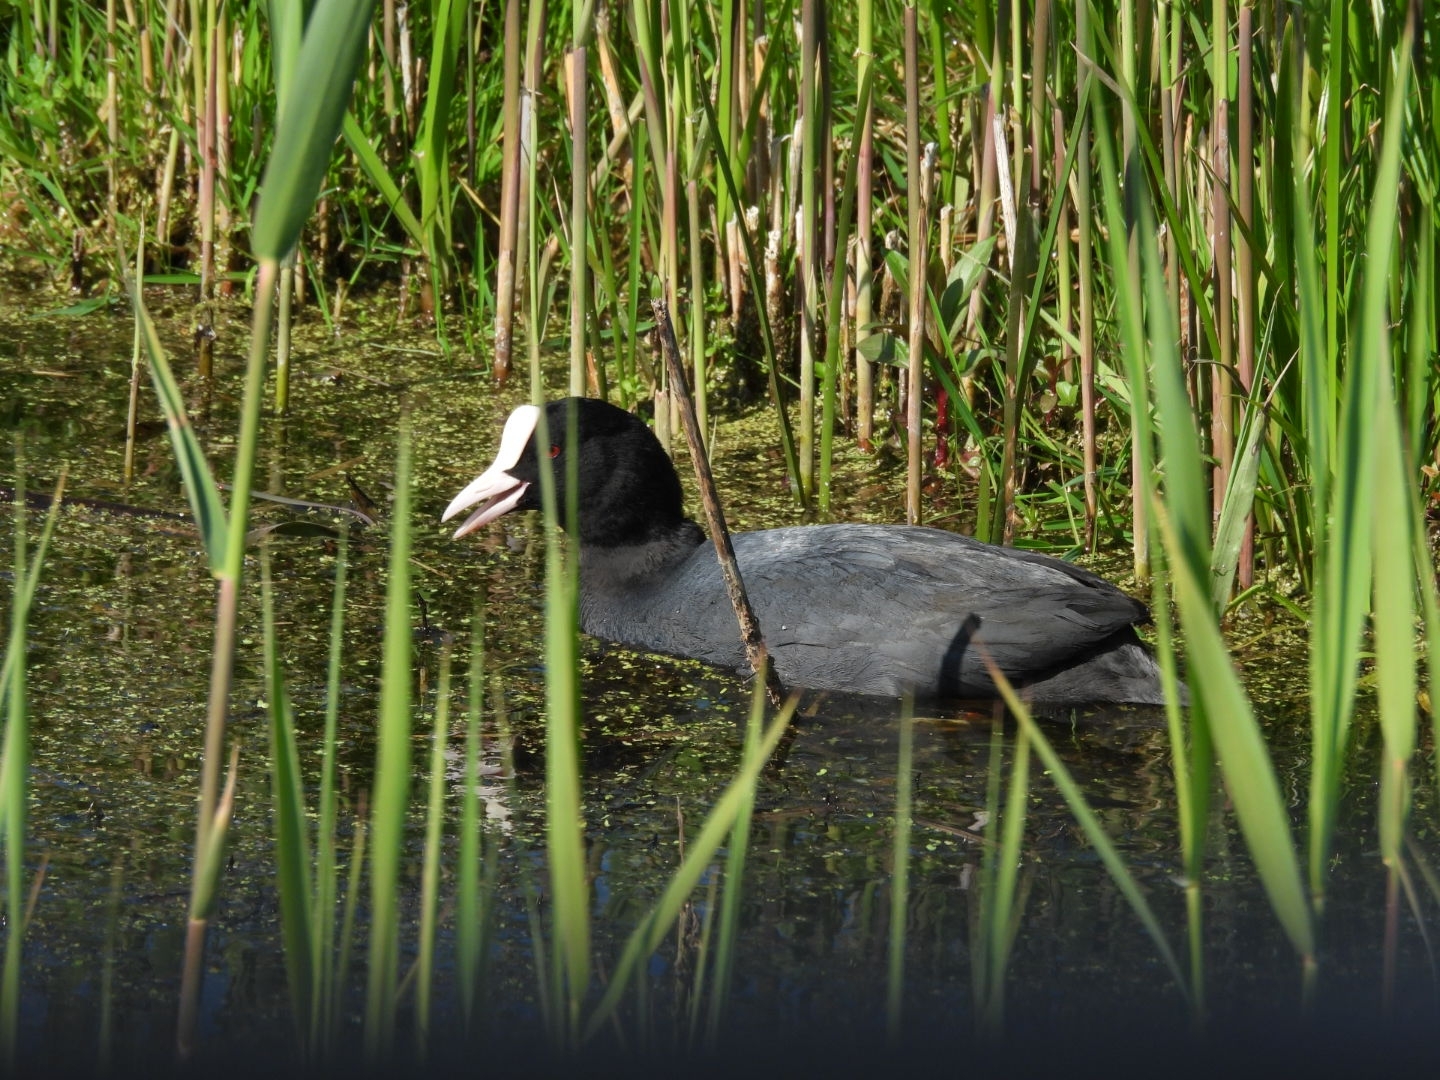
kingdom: Animalia
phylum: Chordata
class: Aves
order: Gruiformes
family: Rallidae
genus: Fulica
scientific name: Fulica atra
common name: Eurasian coot
